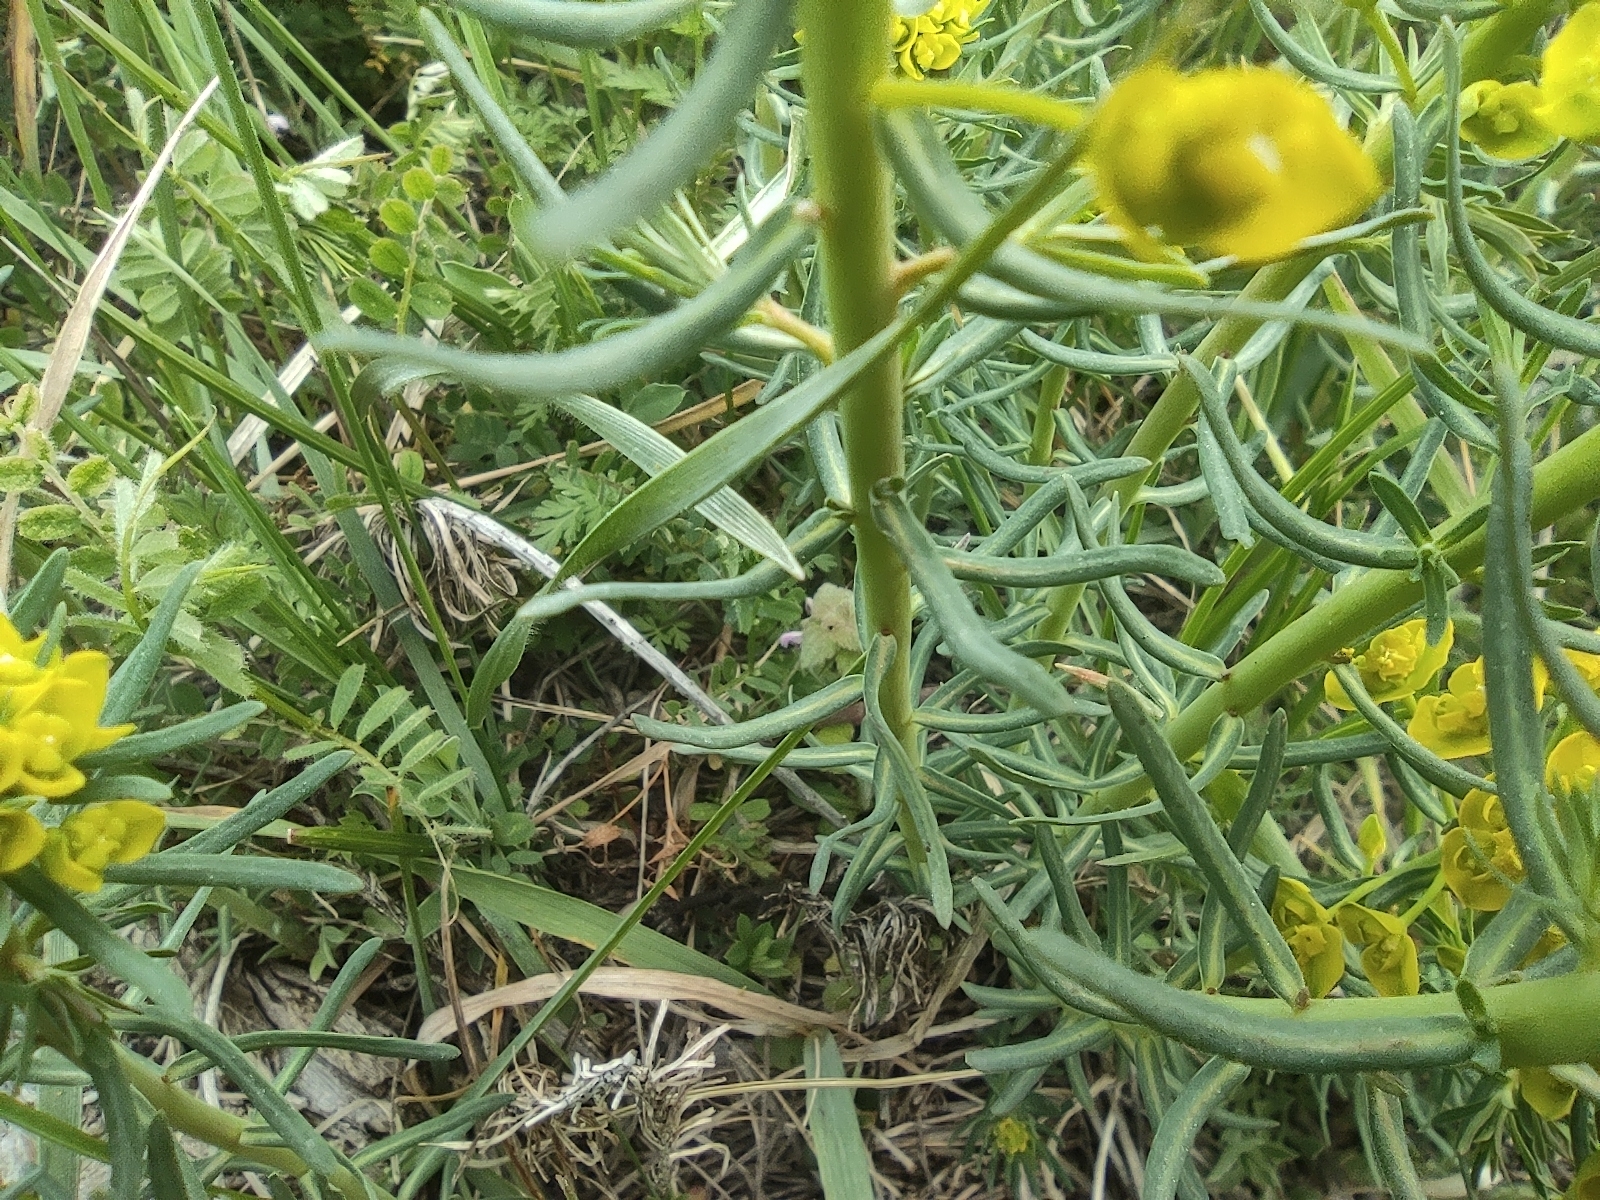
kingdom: Plantae
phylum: Tracheophyta
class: Magnoliopsida
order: Malpighiales
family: Euphorbiaceae
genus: Euphorbia
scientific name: Euphorbia cyparissias
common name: Cypress spurge
